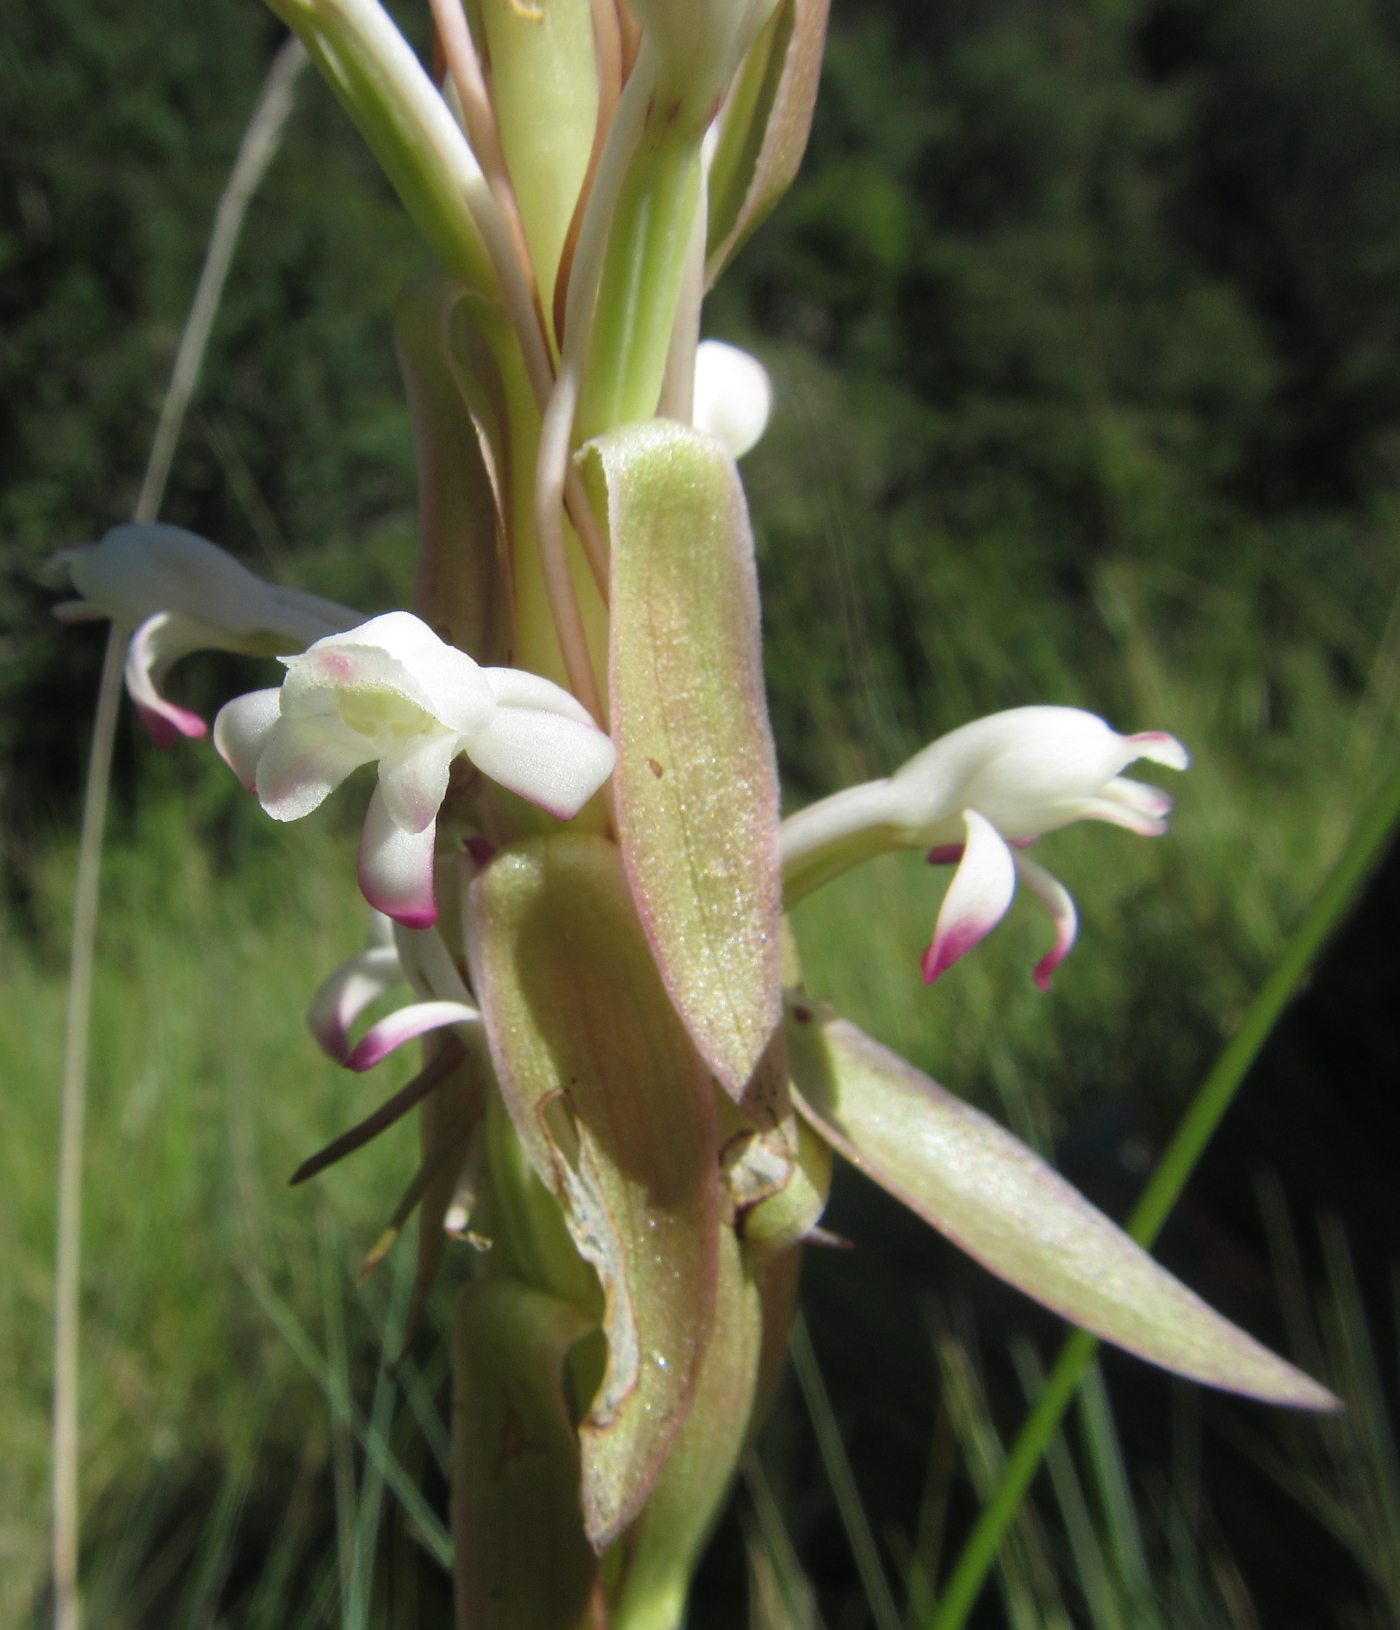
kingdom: Plantae
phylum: Tracheophyta
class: Liliopsida
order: Asparagales
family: Orchidaceae
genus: Satyrium
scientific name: Satyrium longicauda
